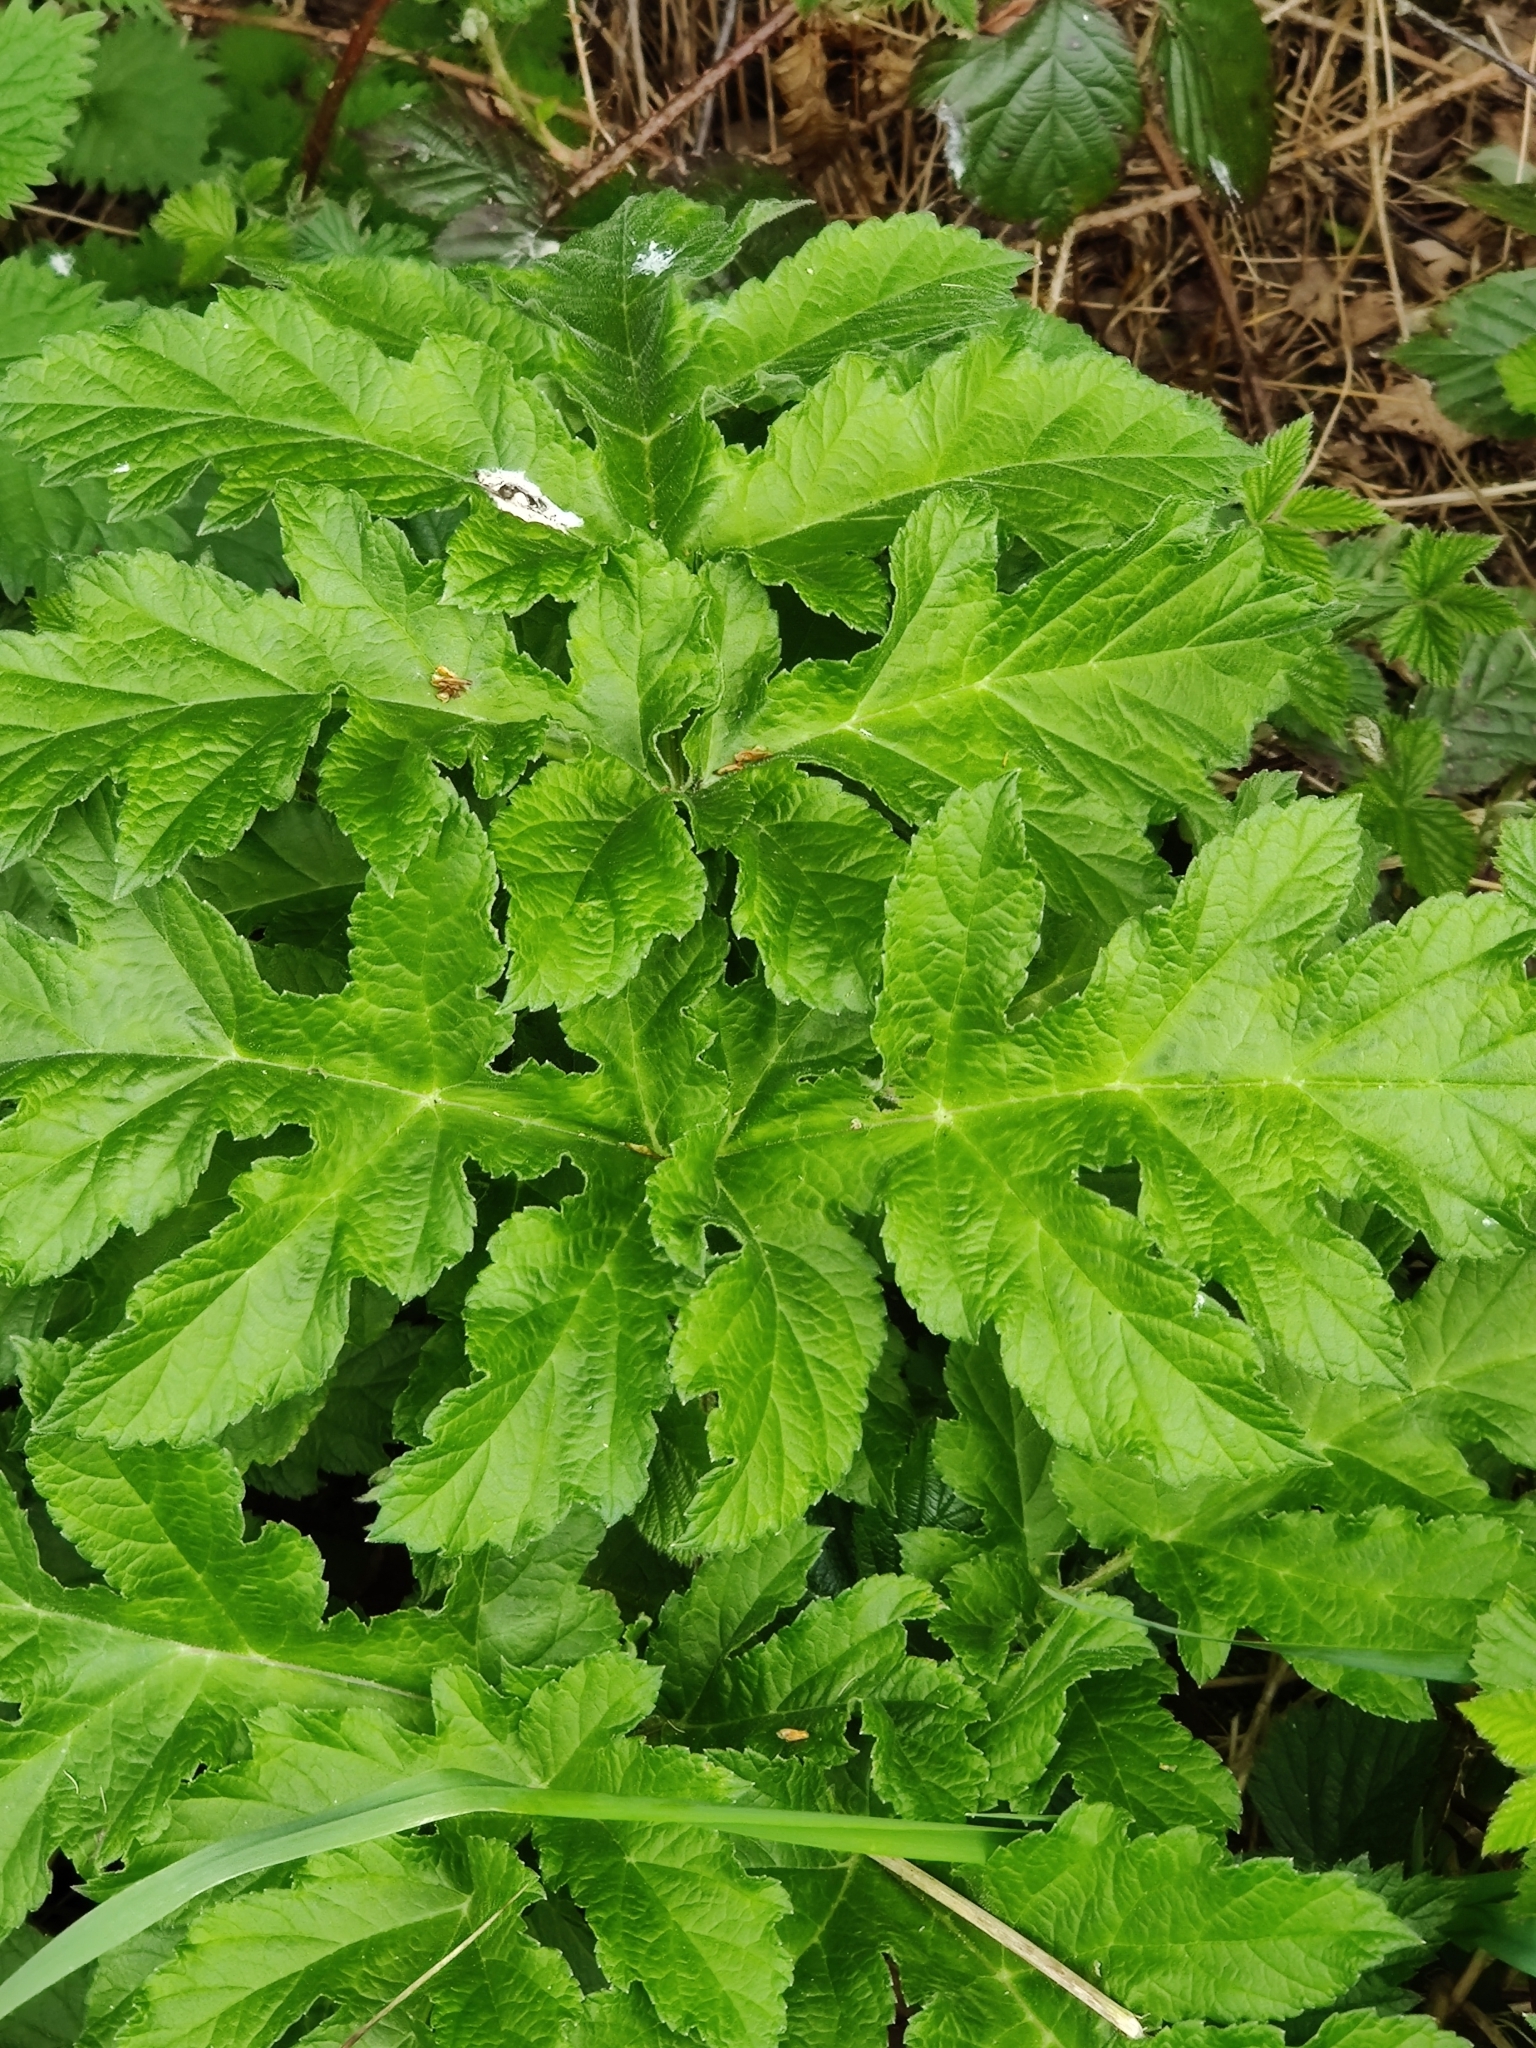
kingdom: Plantae
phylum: Tracheophyta
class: Magnoliopsida
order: Apiales
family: Apiaceae
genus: Heracleum
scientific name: Heracleum sphondylium
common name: Hogweed
